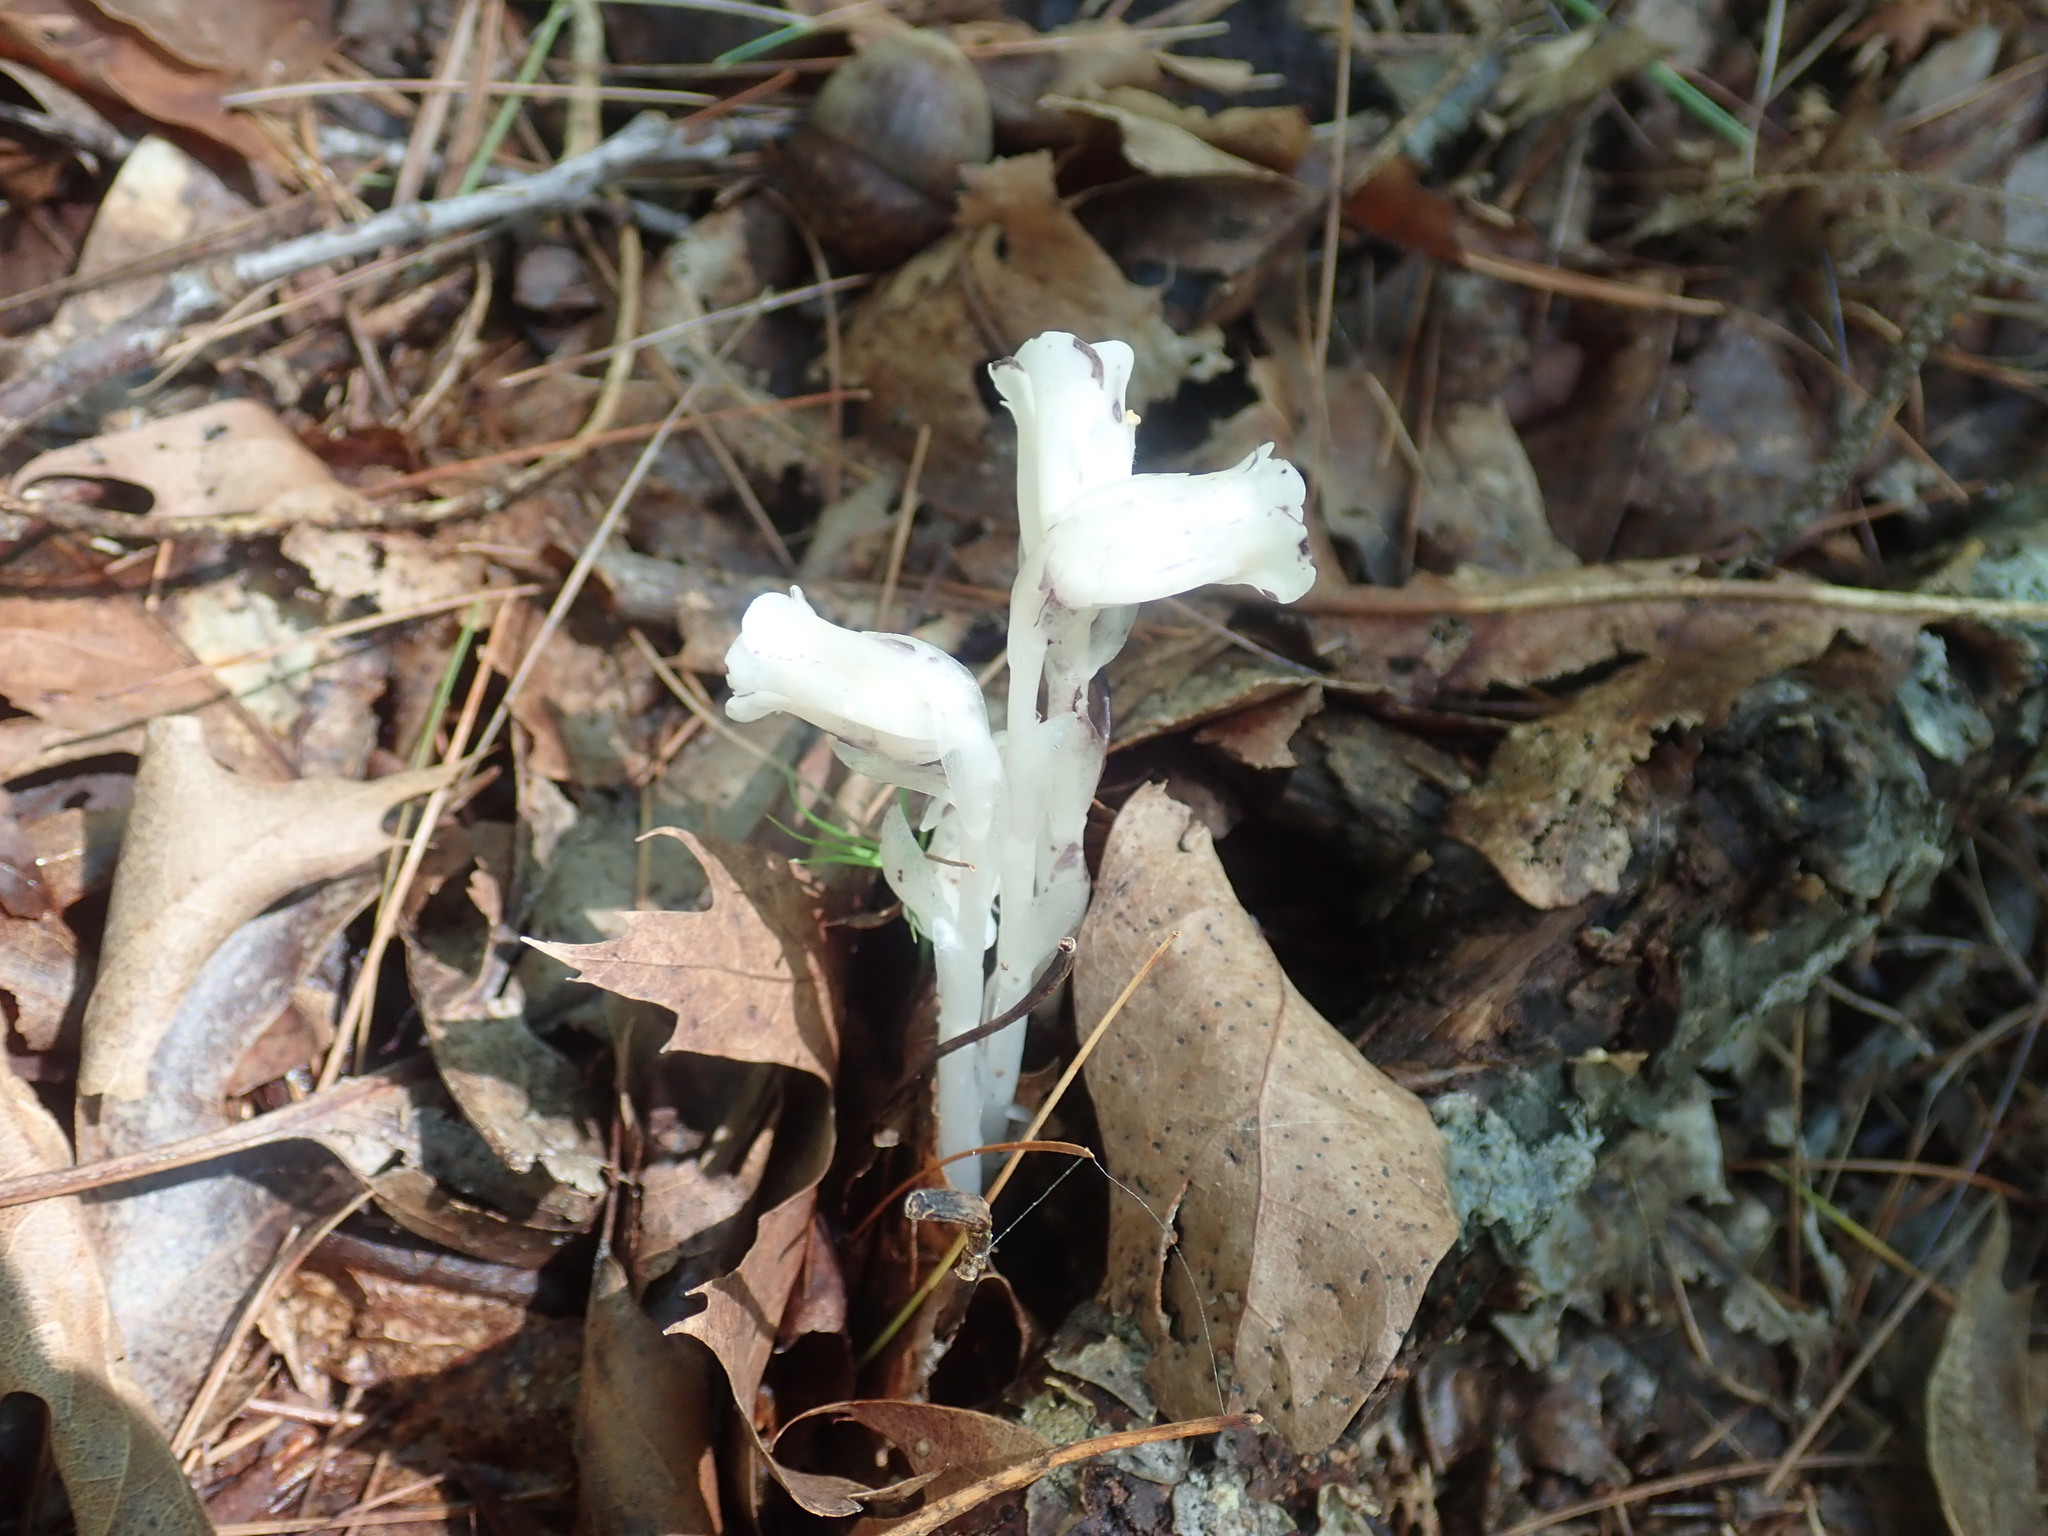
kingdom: Plantae
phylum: Tracheophyta
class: Magnoliopsida
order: Ericales
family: Ericaceae
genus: Monotropa
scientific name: Monotropa uniflora
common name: Convulsion root
